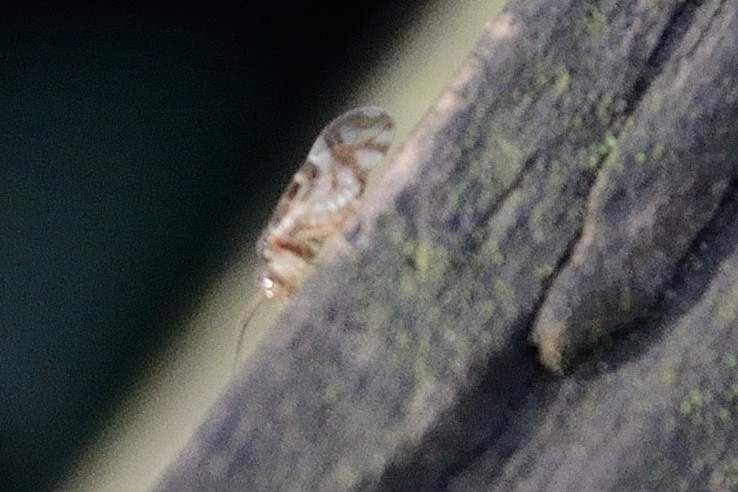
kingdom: Animalia
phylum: Arthropoda
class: Insecta
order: Psocodea
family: Stenopsocidae
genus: Graphopsocus
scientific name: Graphopsocus cruciatus
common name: Lizard bark louse
